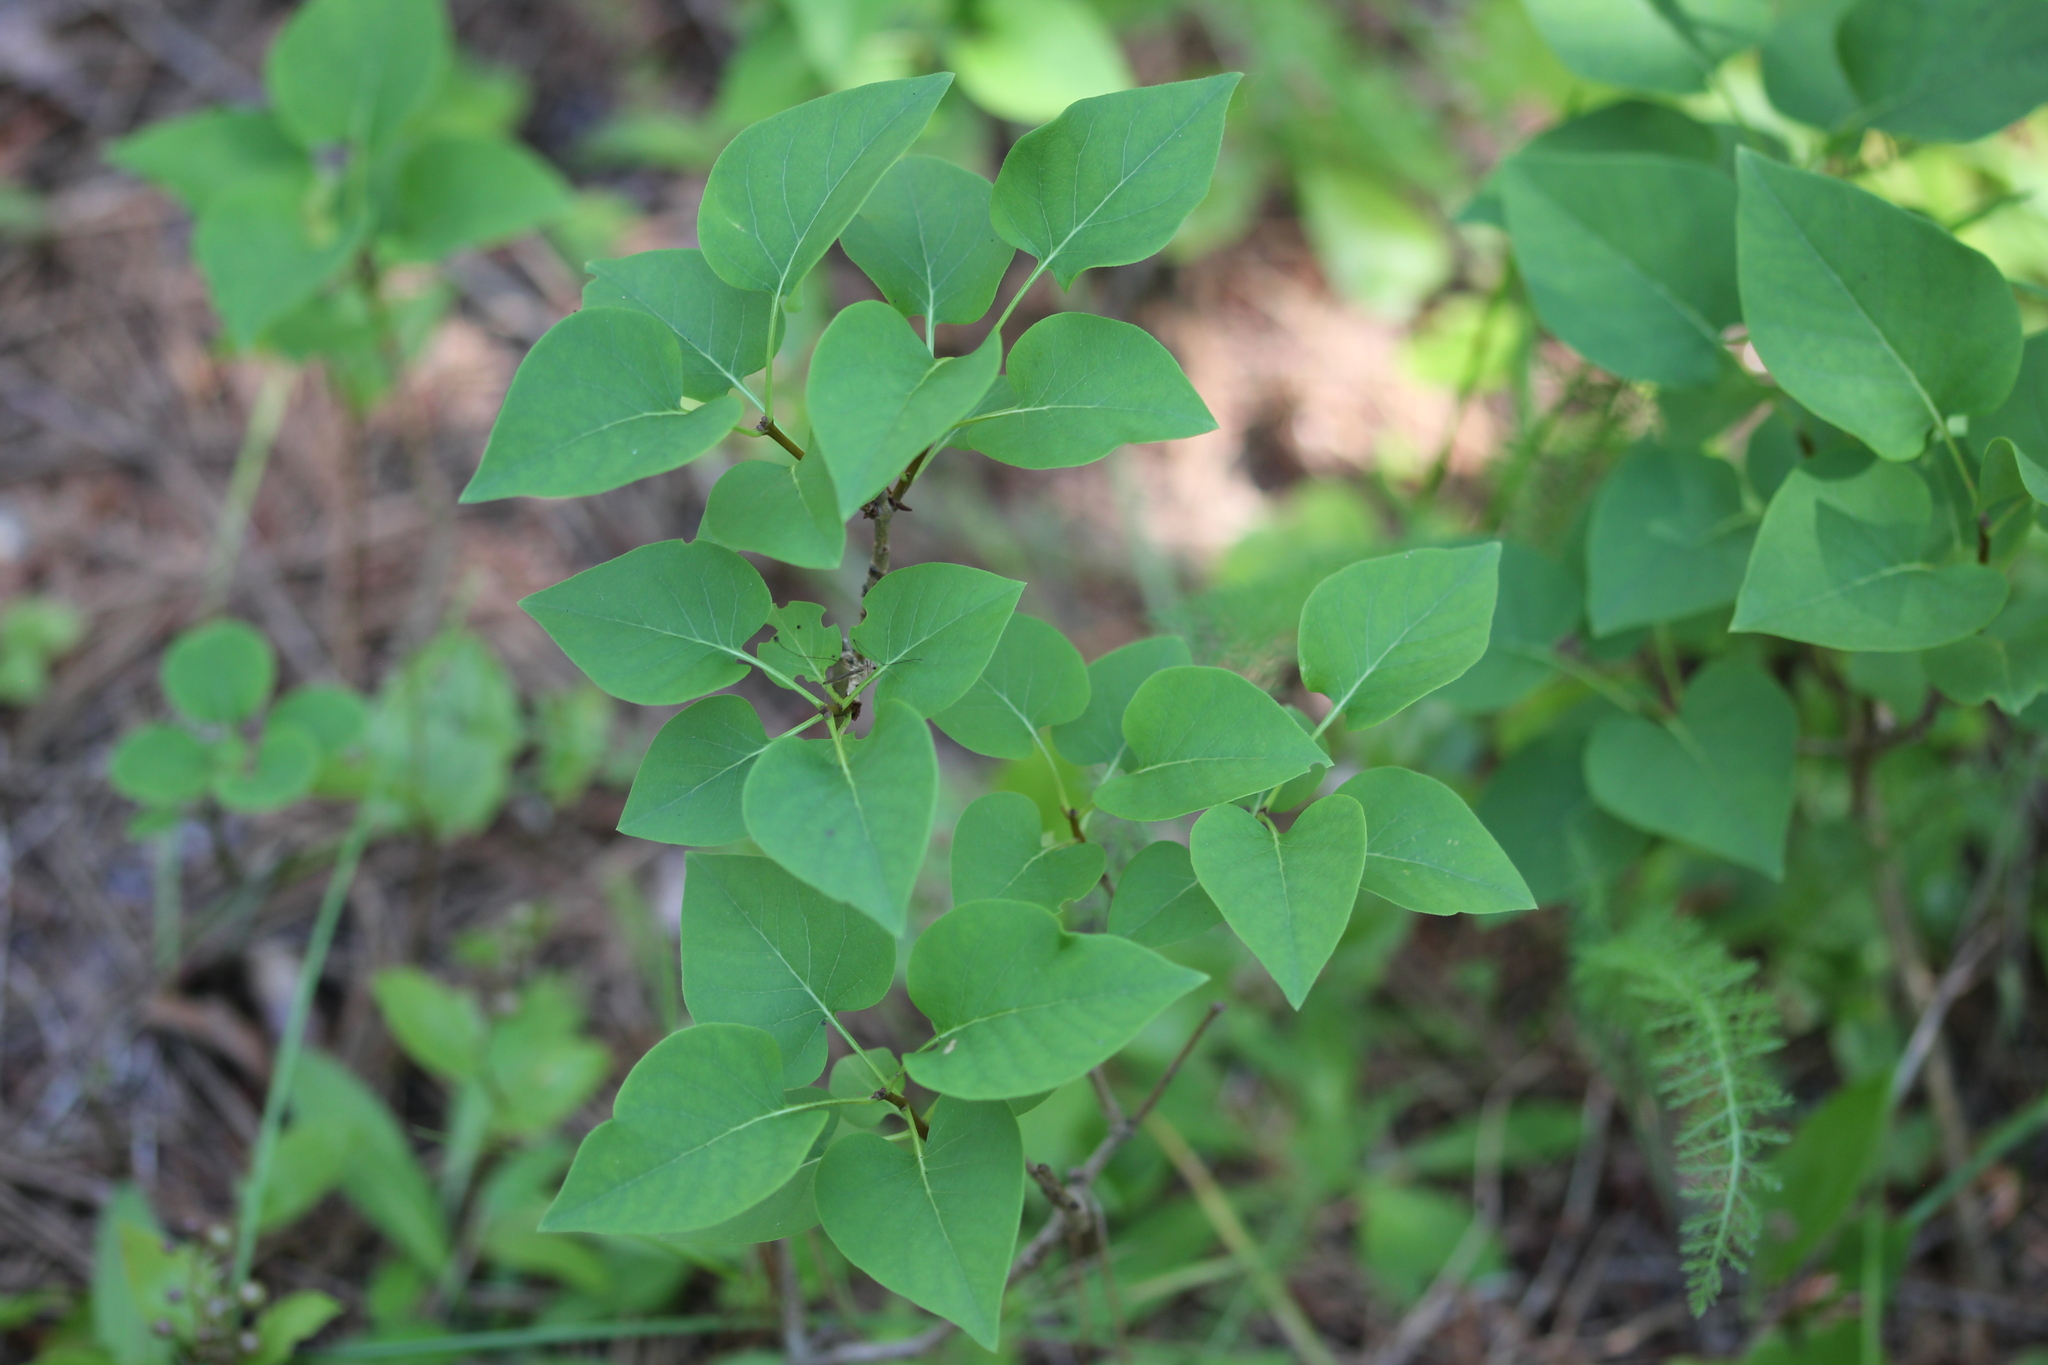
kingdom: Plantae
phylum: Tracheophyta
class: Magnoliopsida
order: Lamiales
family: Oleaceae
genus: Syringa
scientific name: Syringa vulgaris
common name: Common lilac
